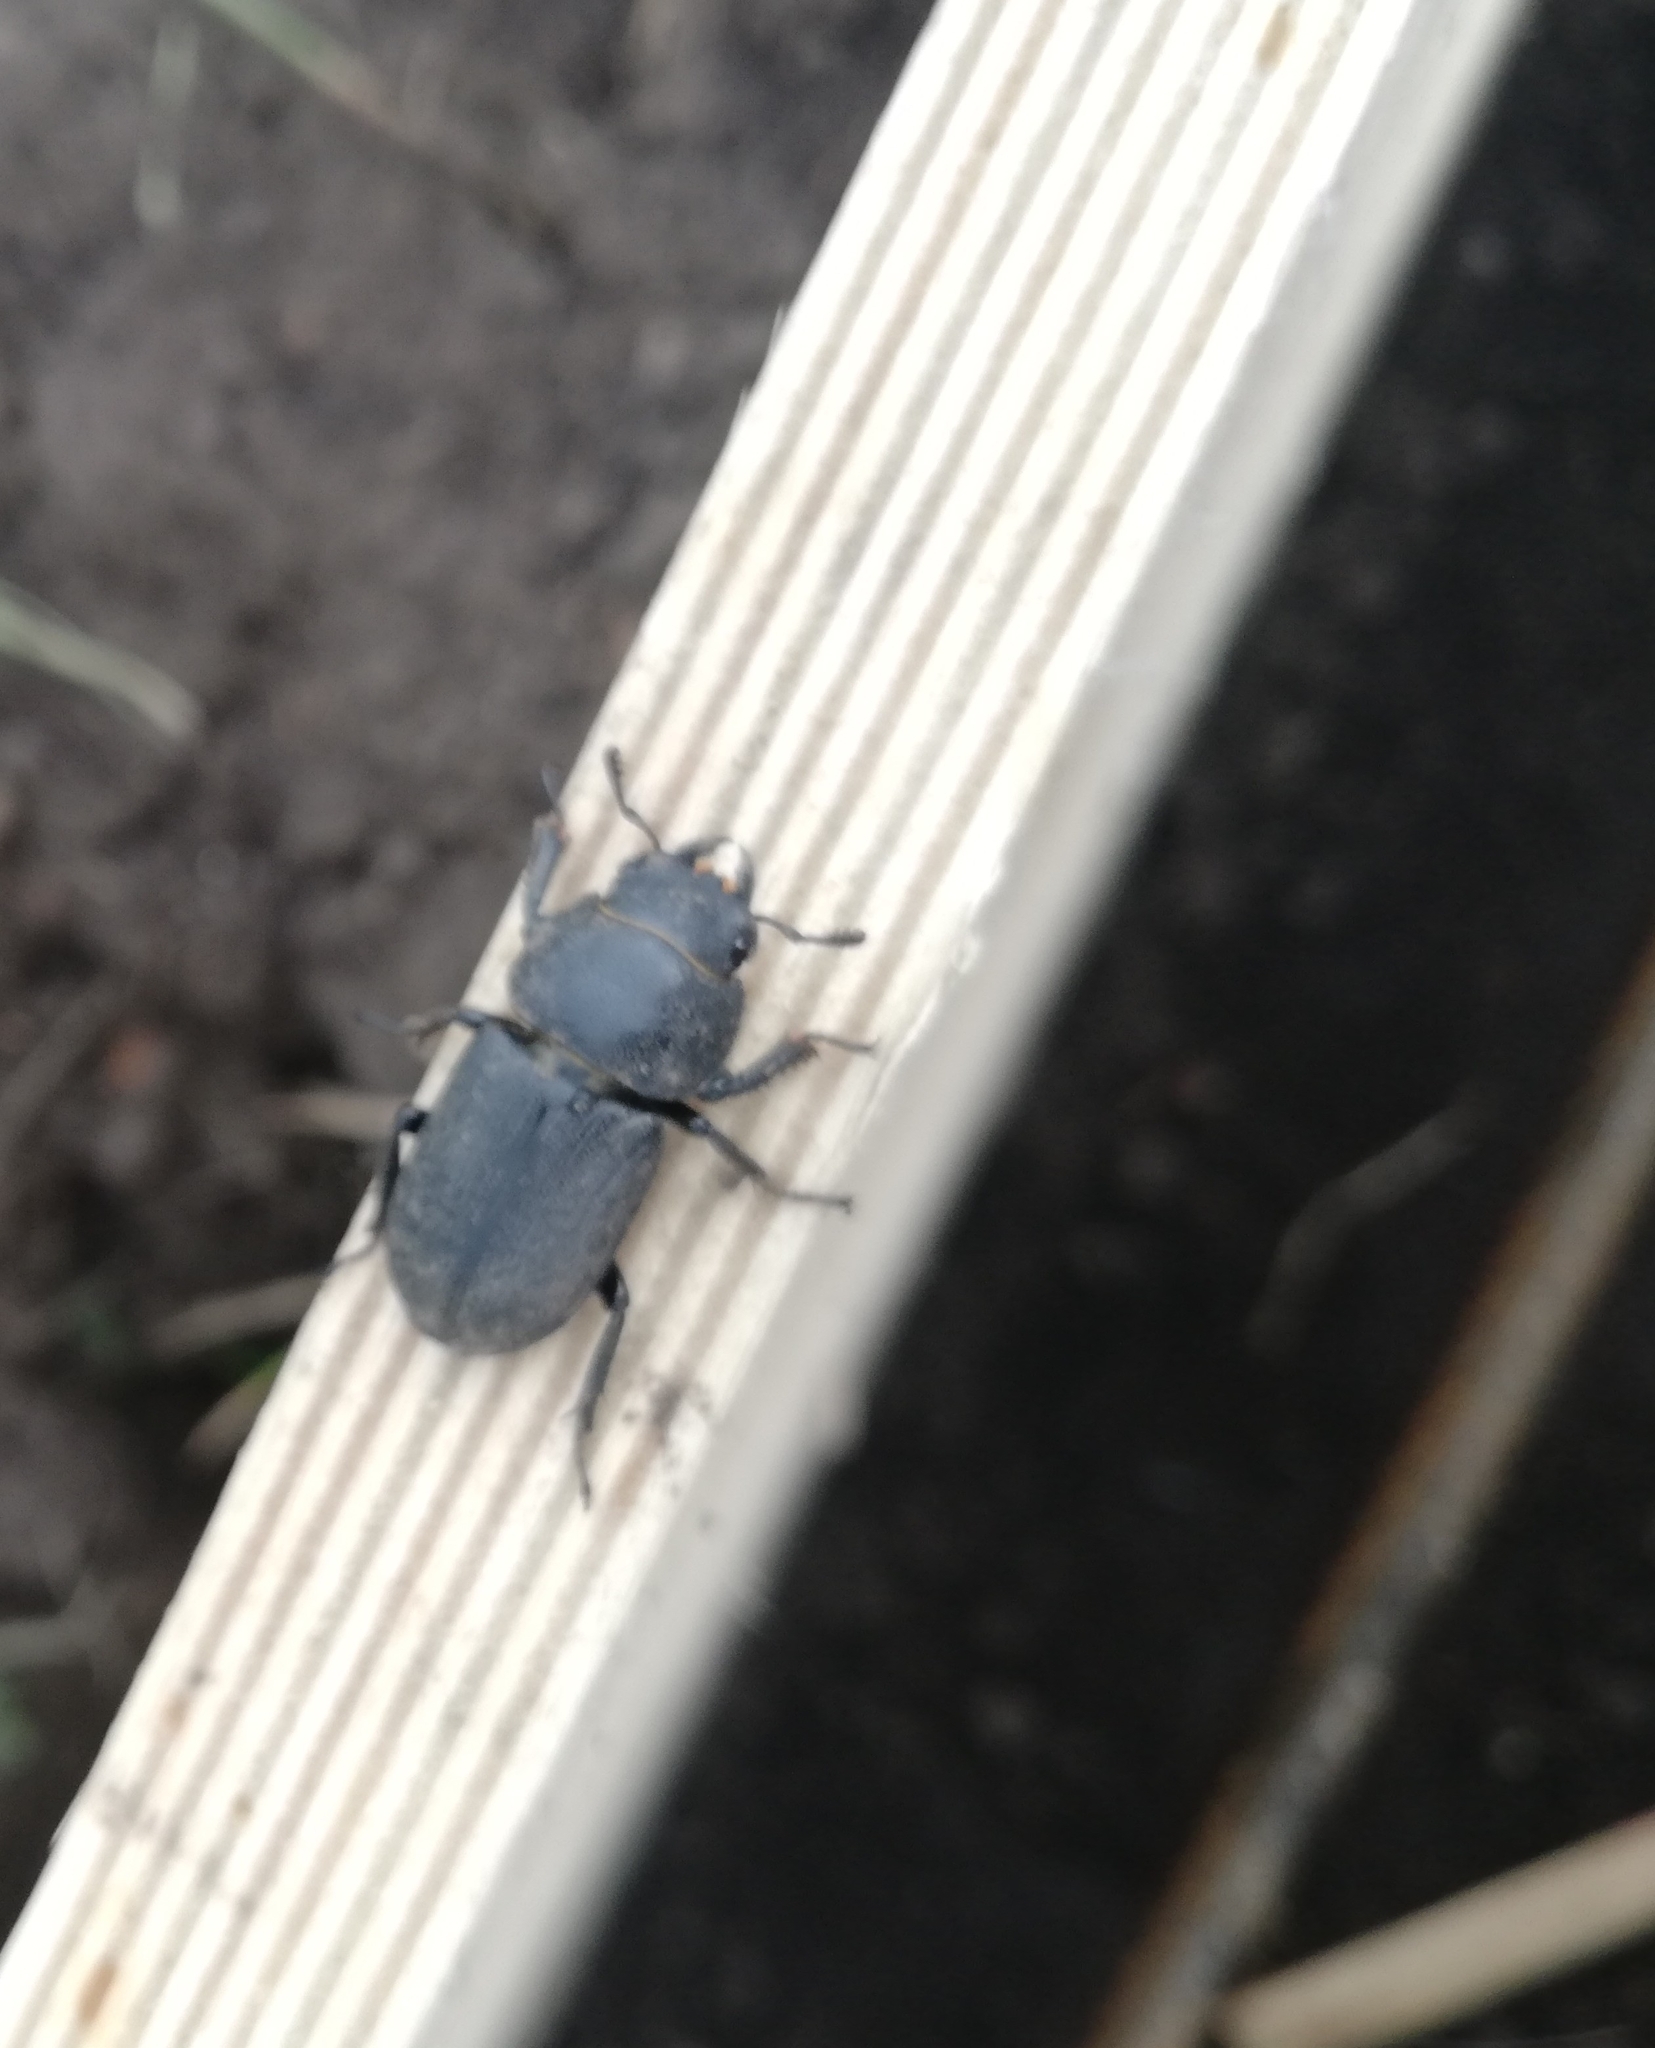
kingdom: Animalia
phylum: Arthropoda
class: Insecta
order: Coleoptera
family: Lucanidae
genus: Dorcus
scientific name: Dorcus parallelipipedus
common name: Lesser stag beetle
